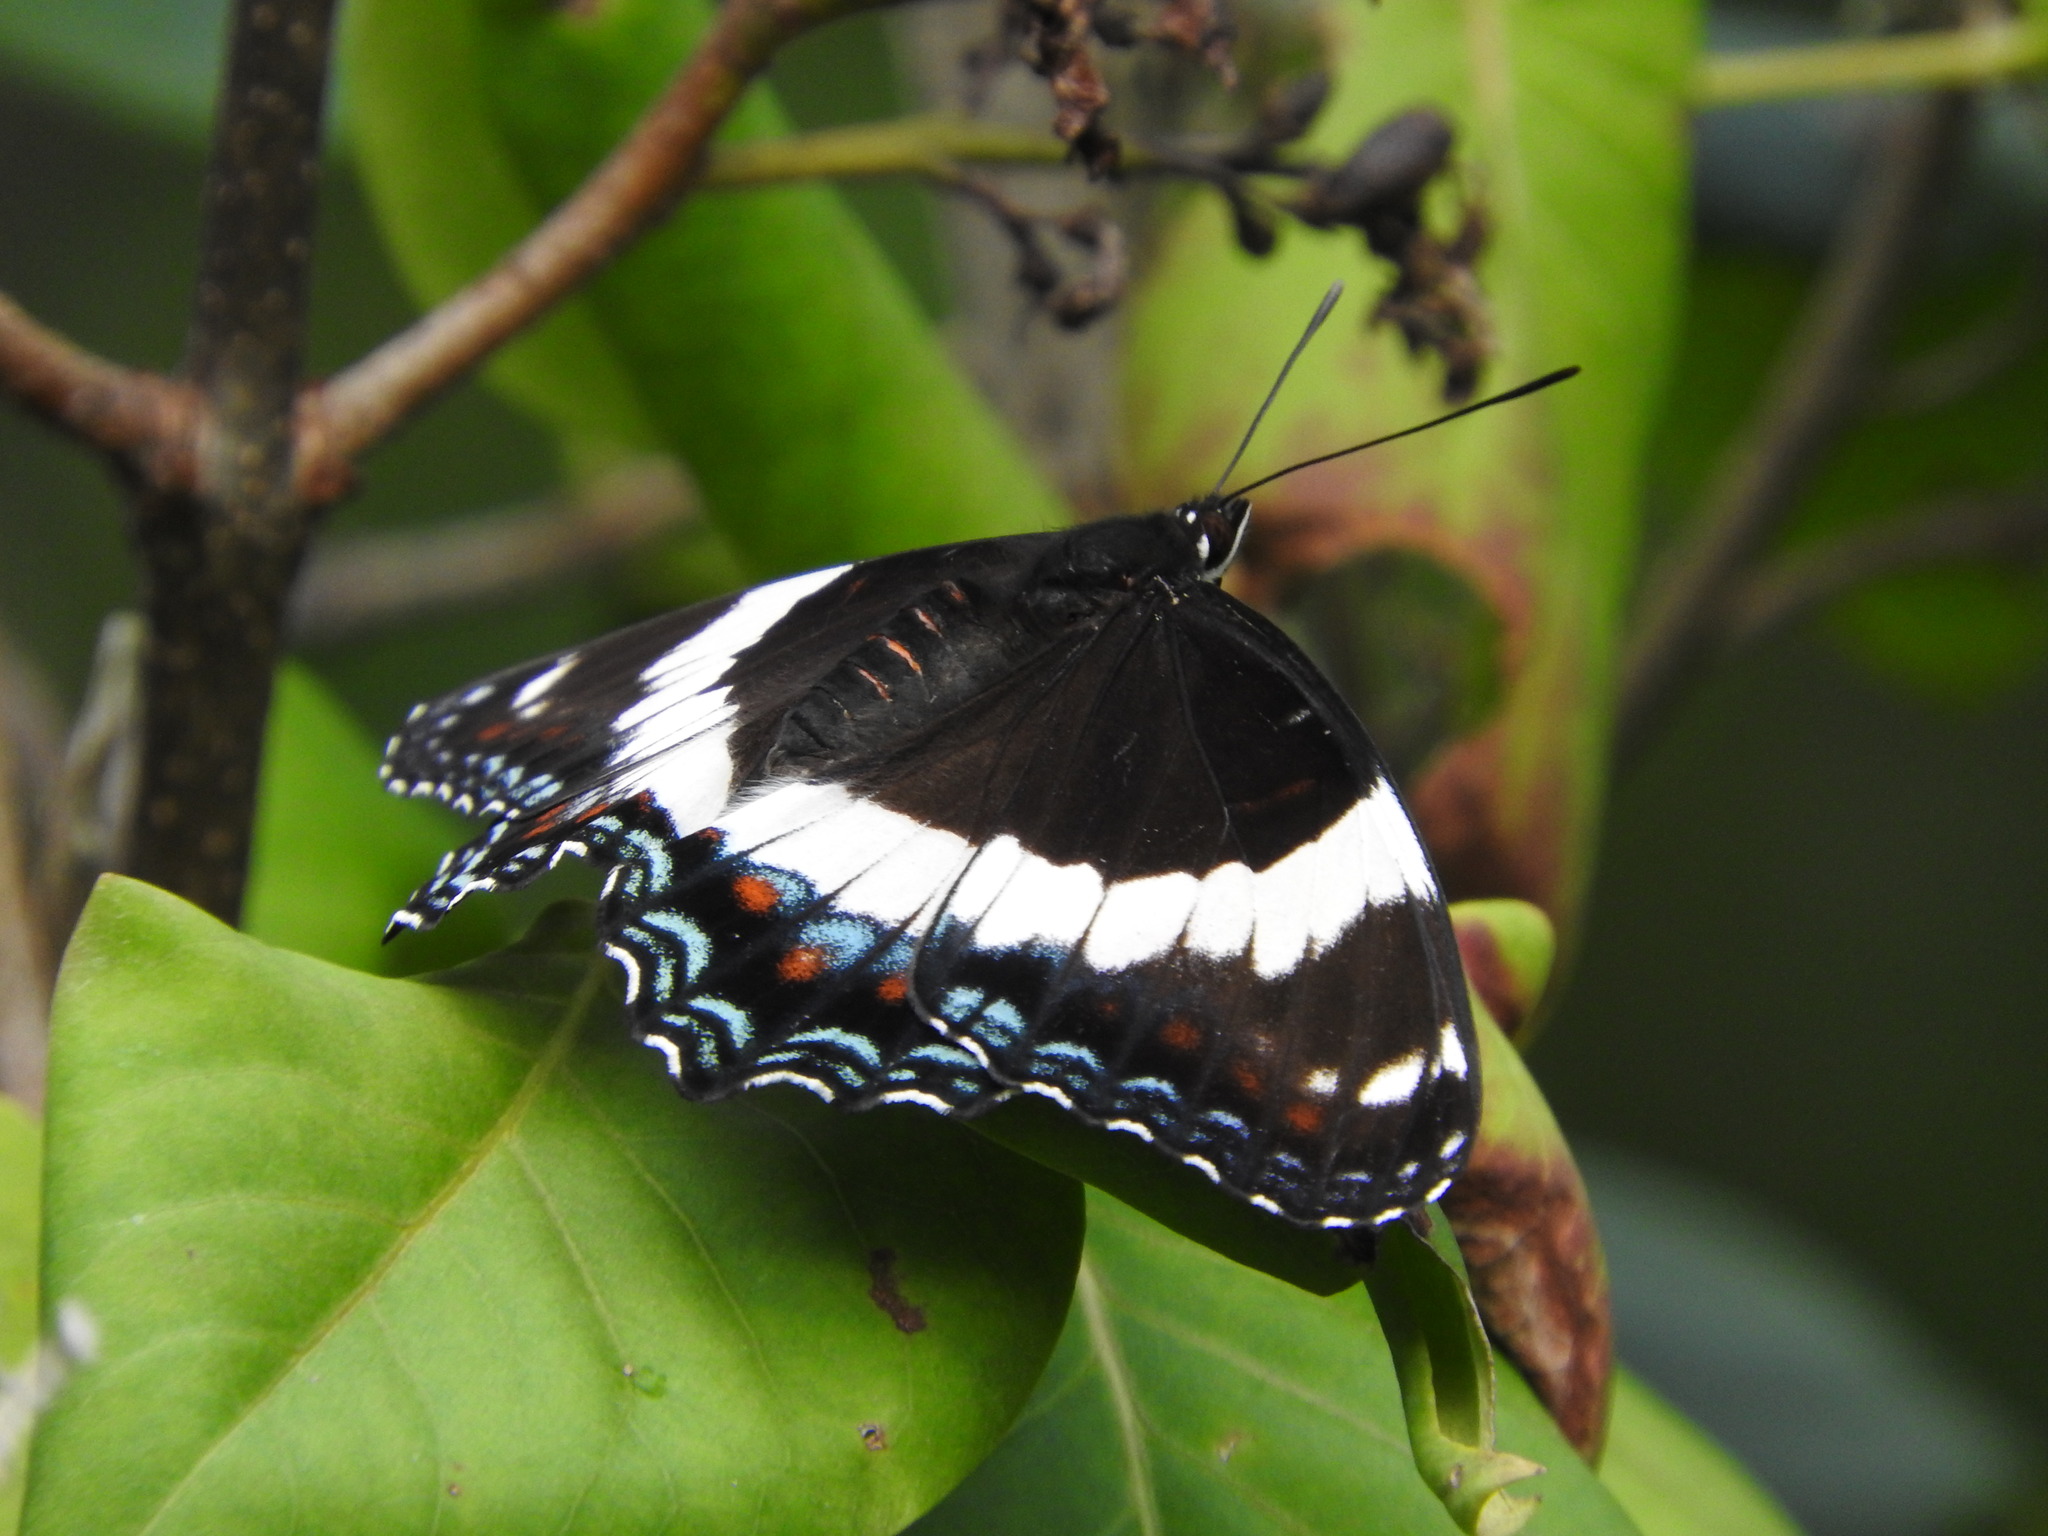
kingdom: Animalia
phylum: Arthropoda
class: Insecta
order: Lepidoptera
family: Nymphalidae
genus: Limenitis
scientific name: Limenitis arthemis
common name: Red-spotted admiral
